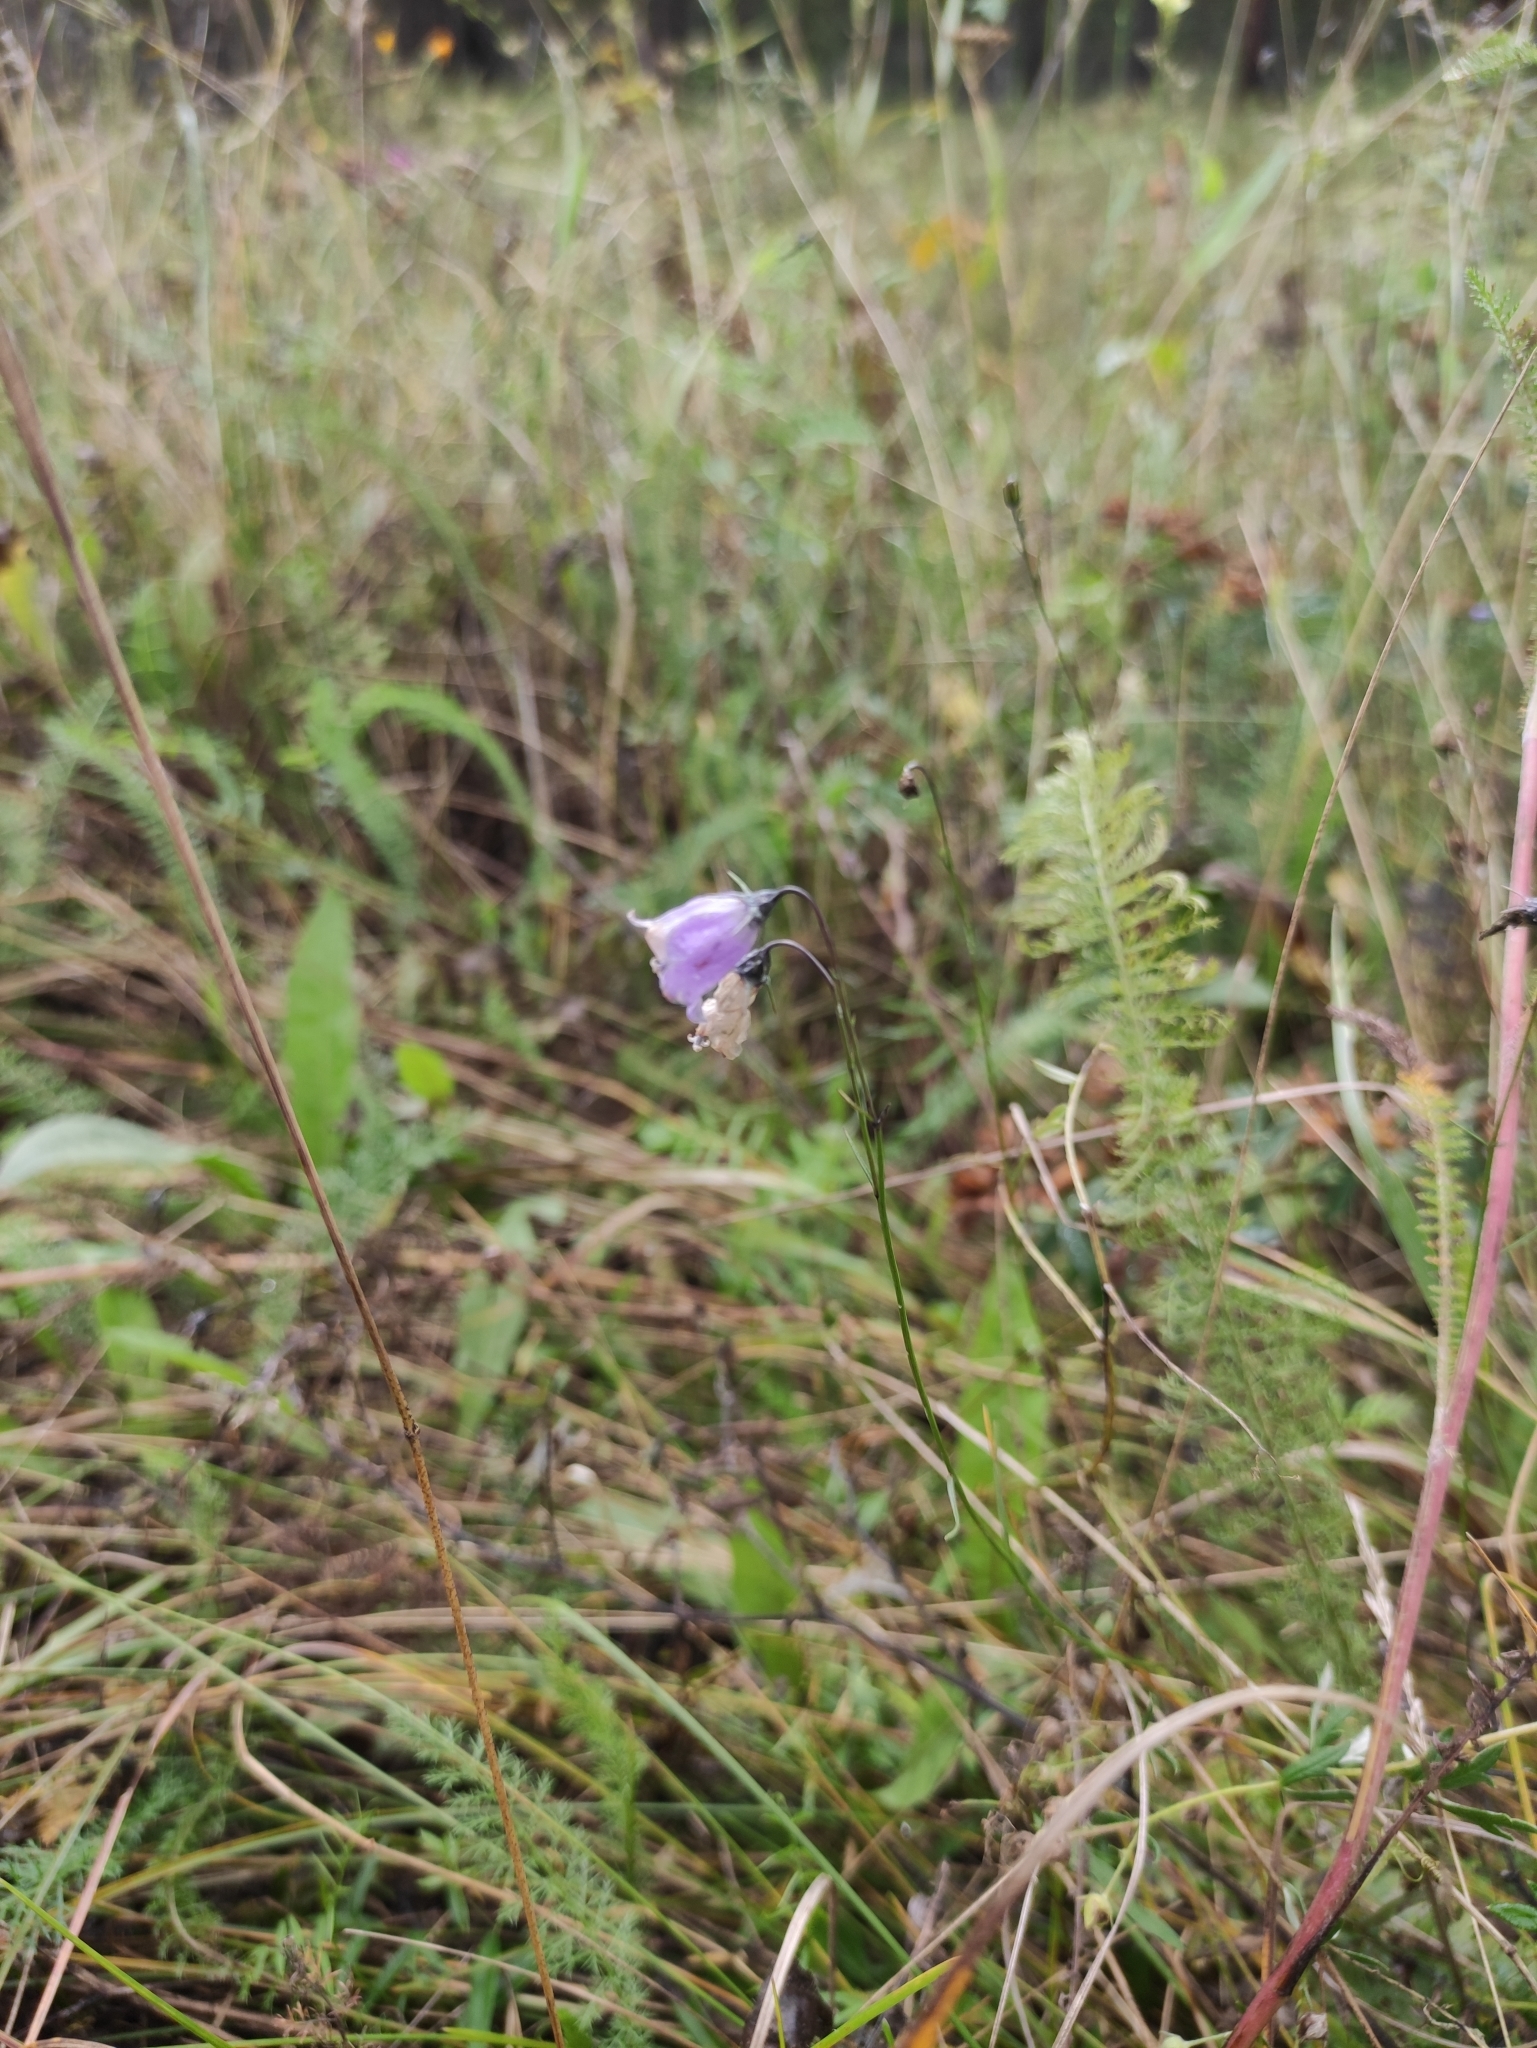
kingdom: Plantae
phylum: Tracheophyta
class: Magnoliopsida
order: Asterales
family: Campanulaceae
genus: Campanula
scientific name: Campanula rotundifolia
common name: Harebell
